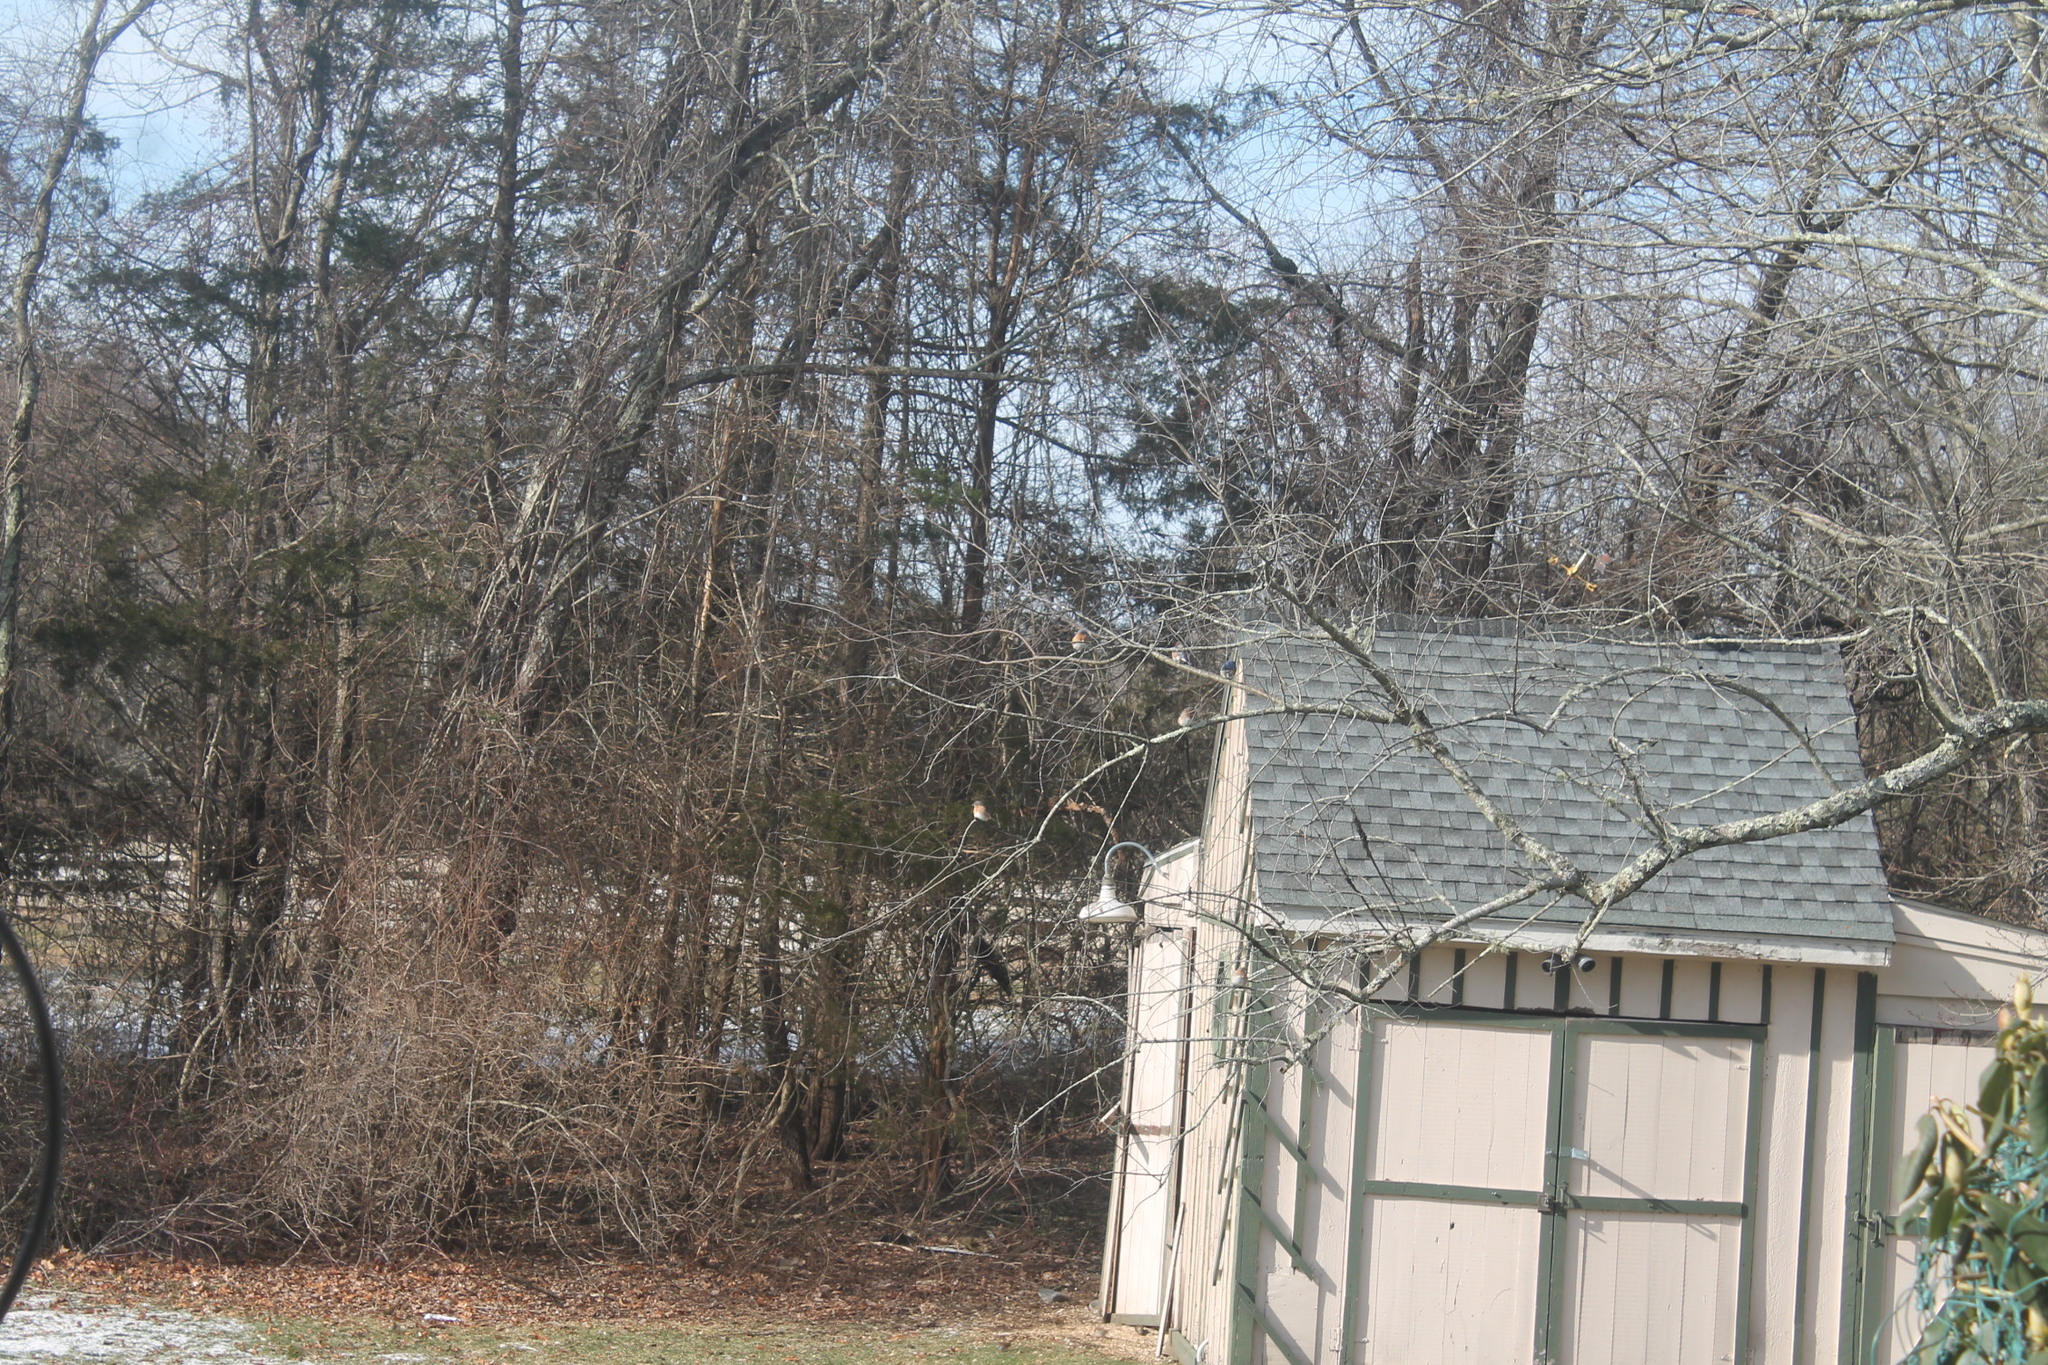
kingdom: Animalia
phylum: Chordata
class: Aves
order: Passeriformes
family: Turdidae
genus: Sialia
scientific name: Sialia sialis
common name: Eastern bluebird
